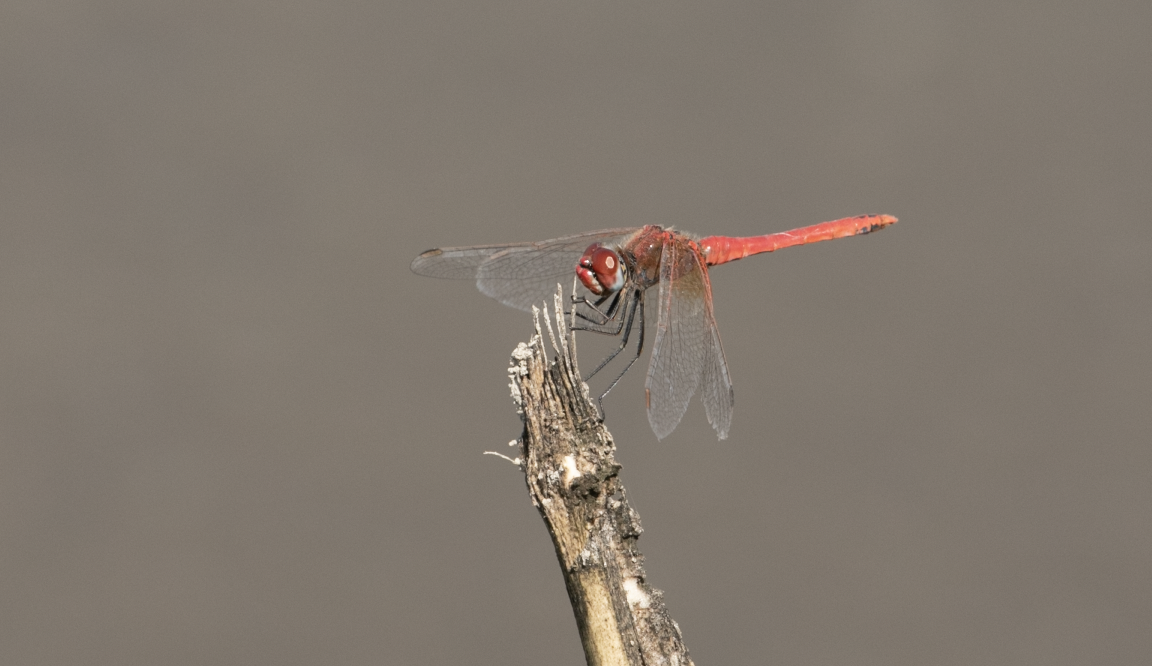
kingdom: Animalia
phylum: Arthropoda
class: Insecta
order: Odonata
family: Libellulidae
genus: Sympetrum
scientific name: Sympetrum fonscolombii
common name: Red-veined darter
